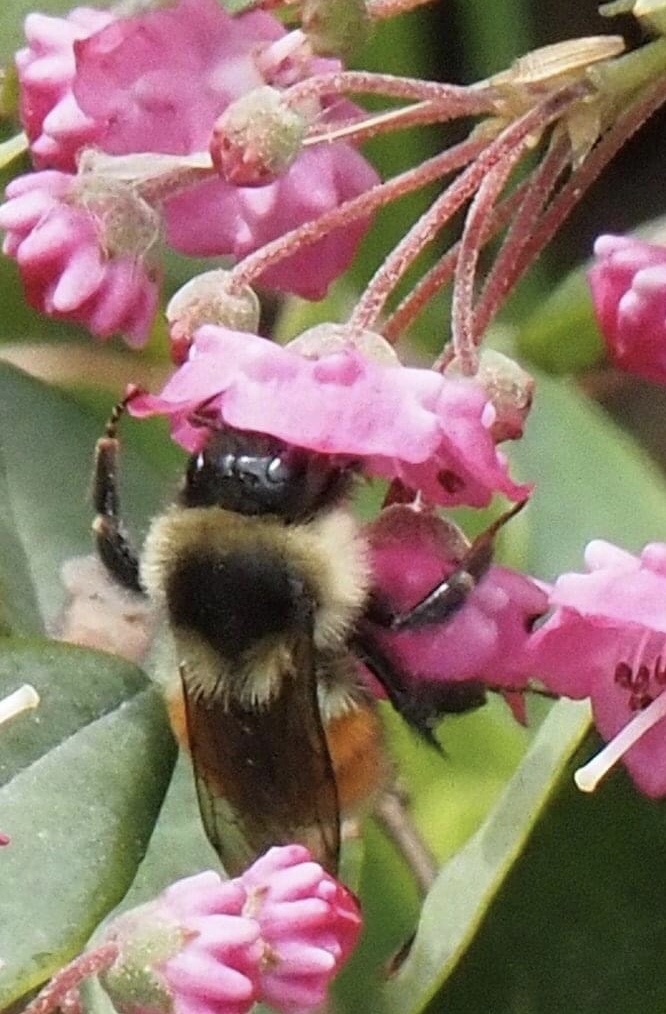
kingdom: Animalia
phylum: Arthropoda
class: Insecta
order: Hymenoptera
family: Apidae
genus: Bombus
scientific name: Bombus ternarius
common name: Tri-colored bumble bee
